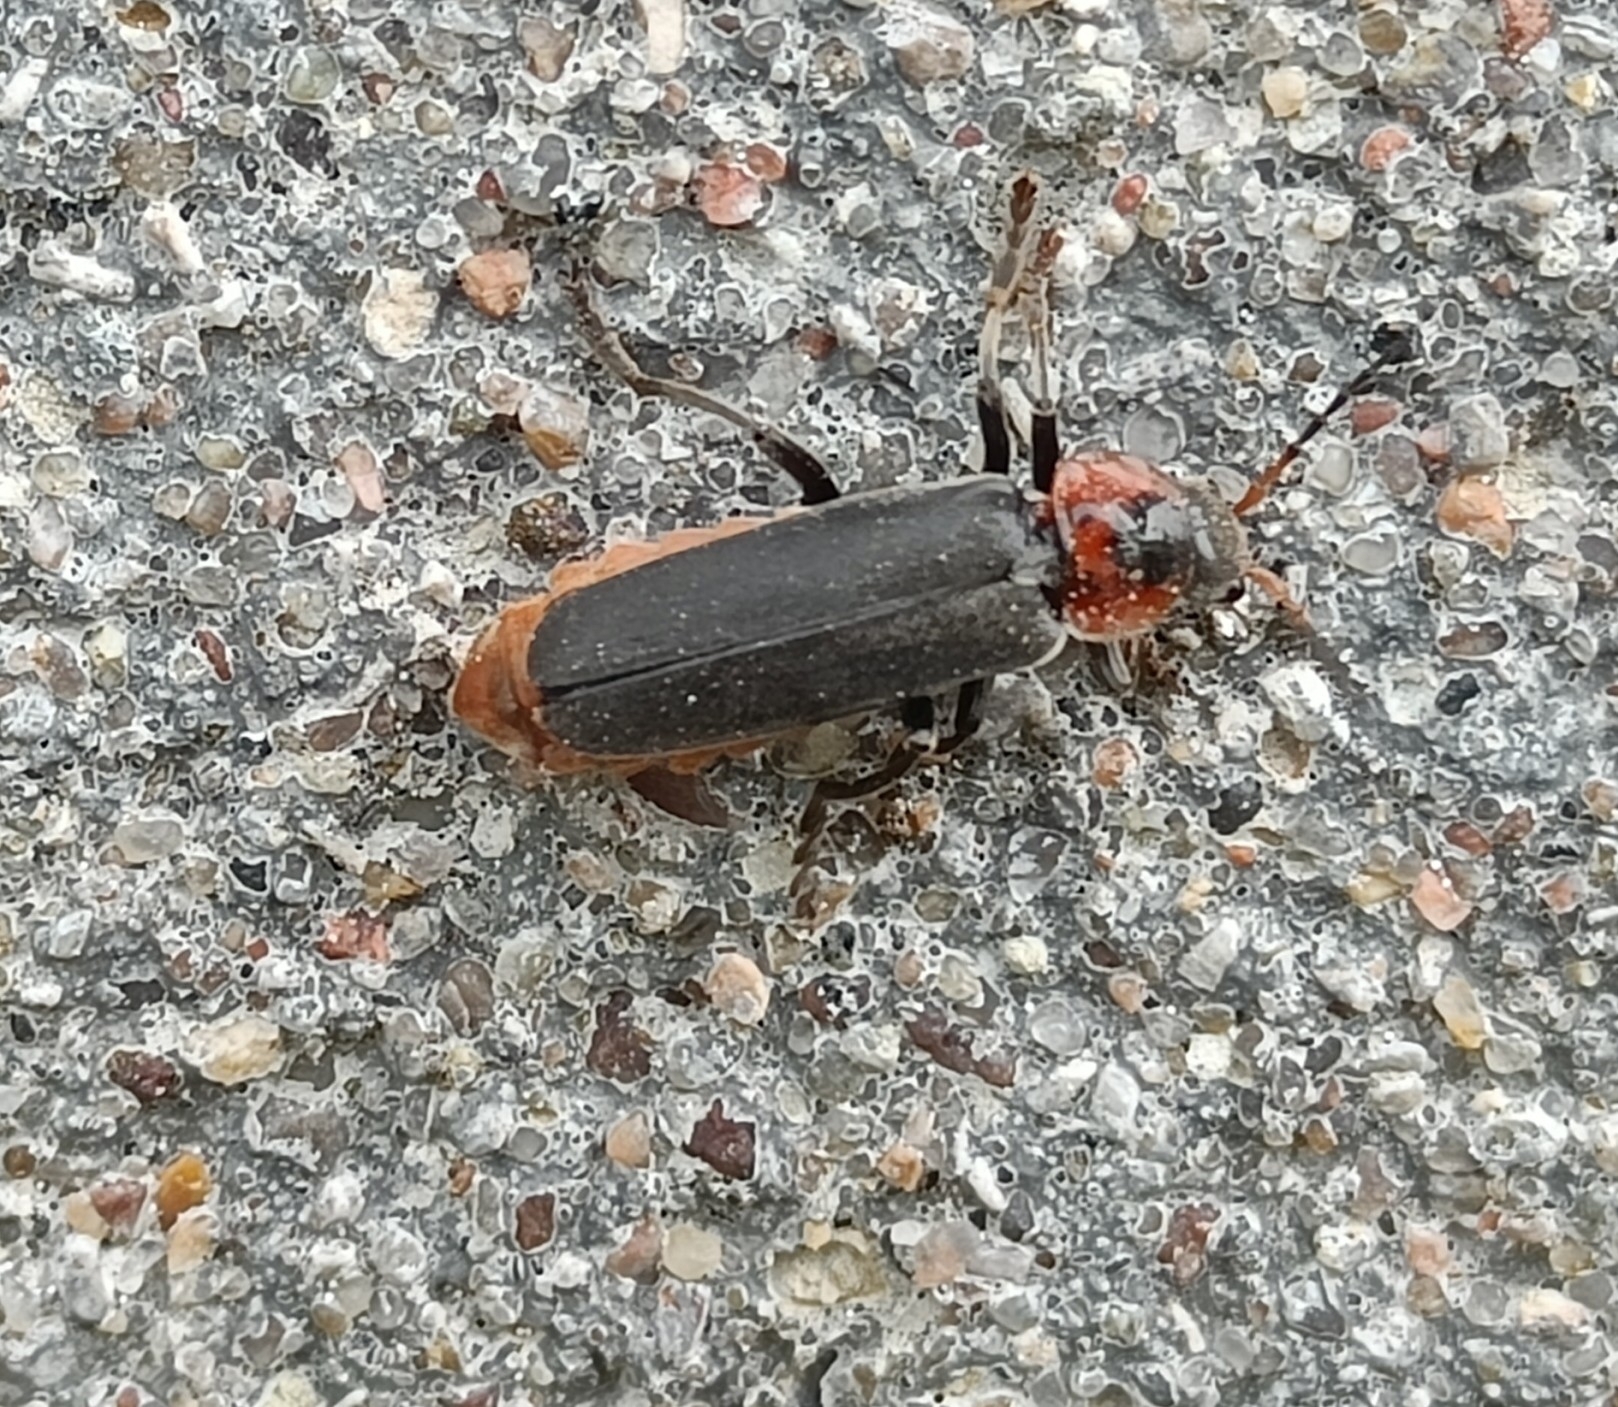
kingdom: Animalia
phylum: Arthropoda
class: Insecta
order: Coleoptera
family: Cantharidae
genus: Cantharis
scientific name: Cantharis fusca
